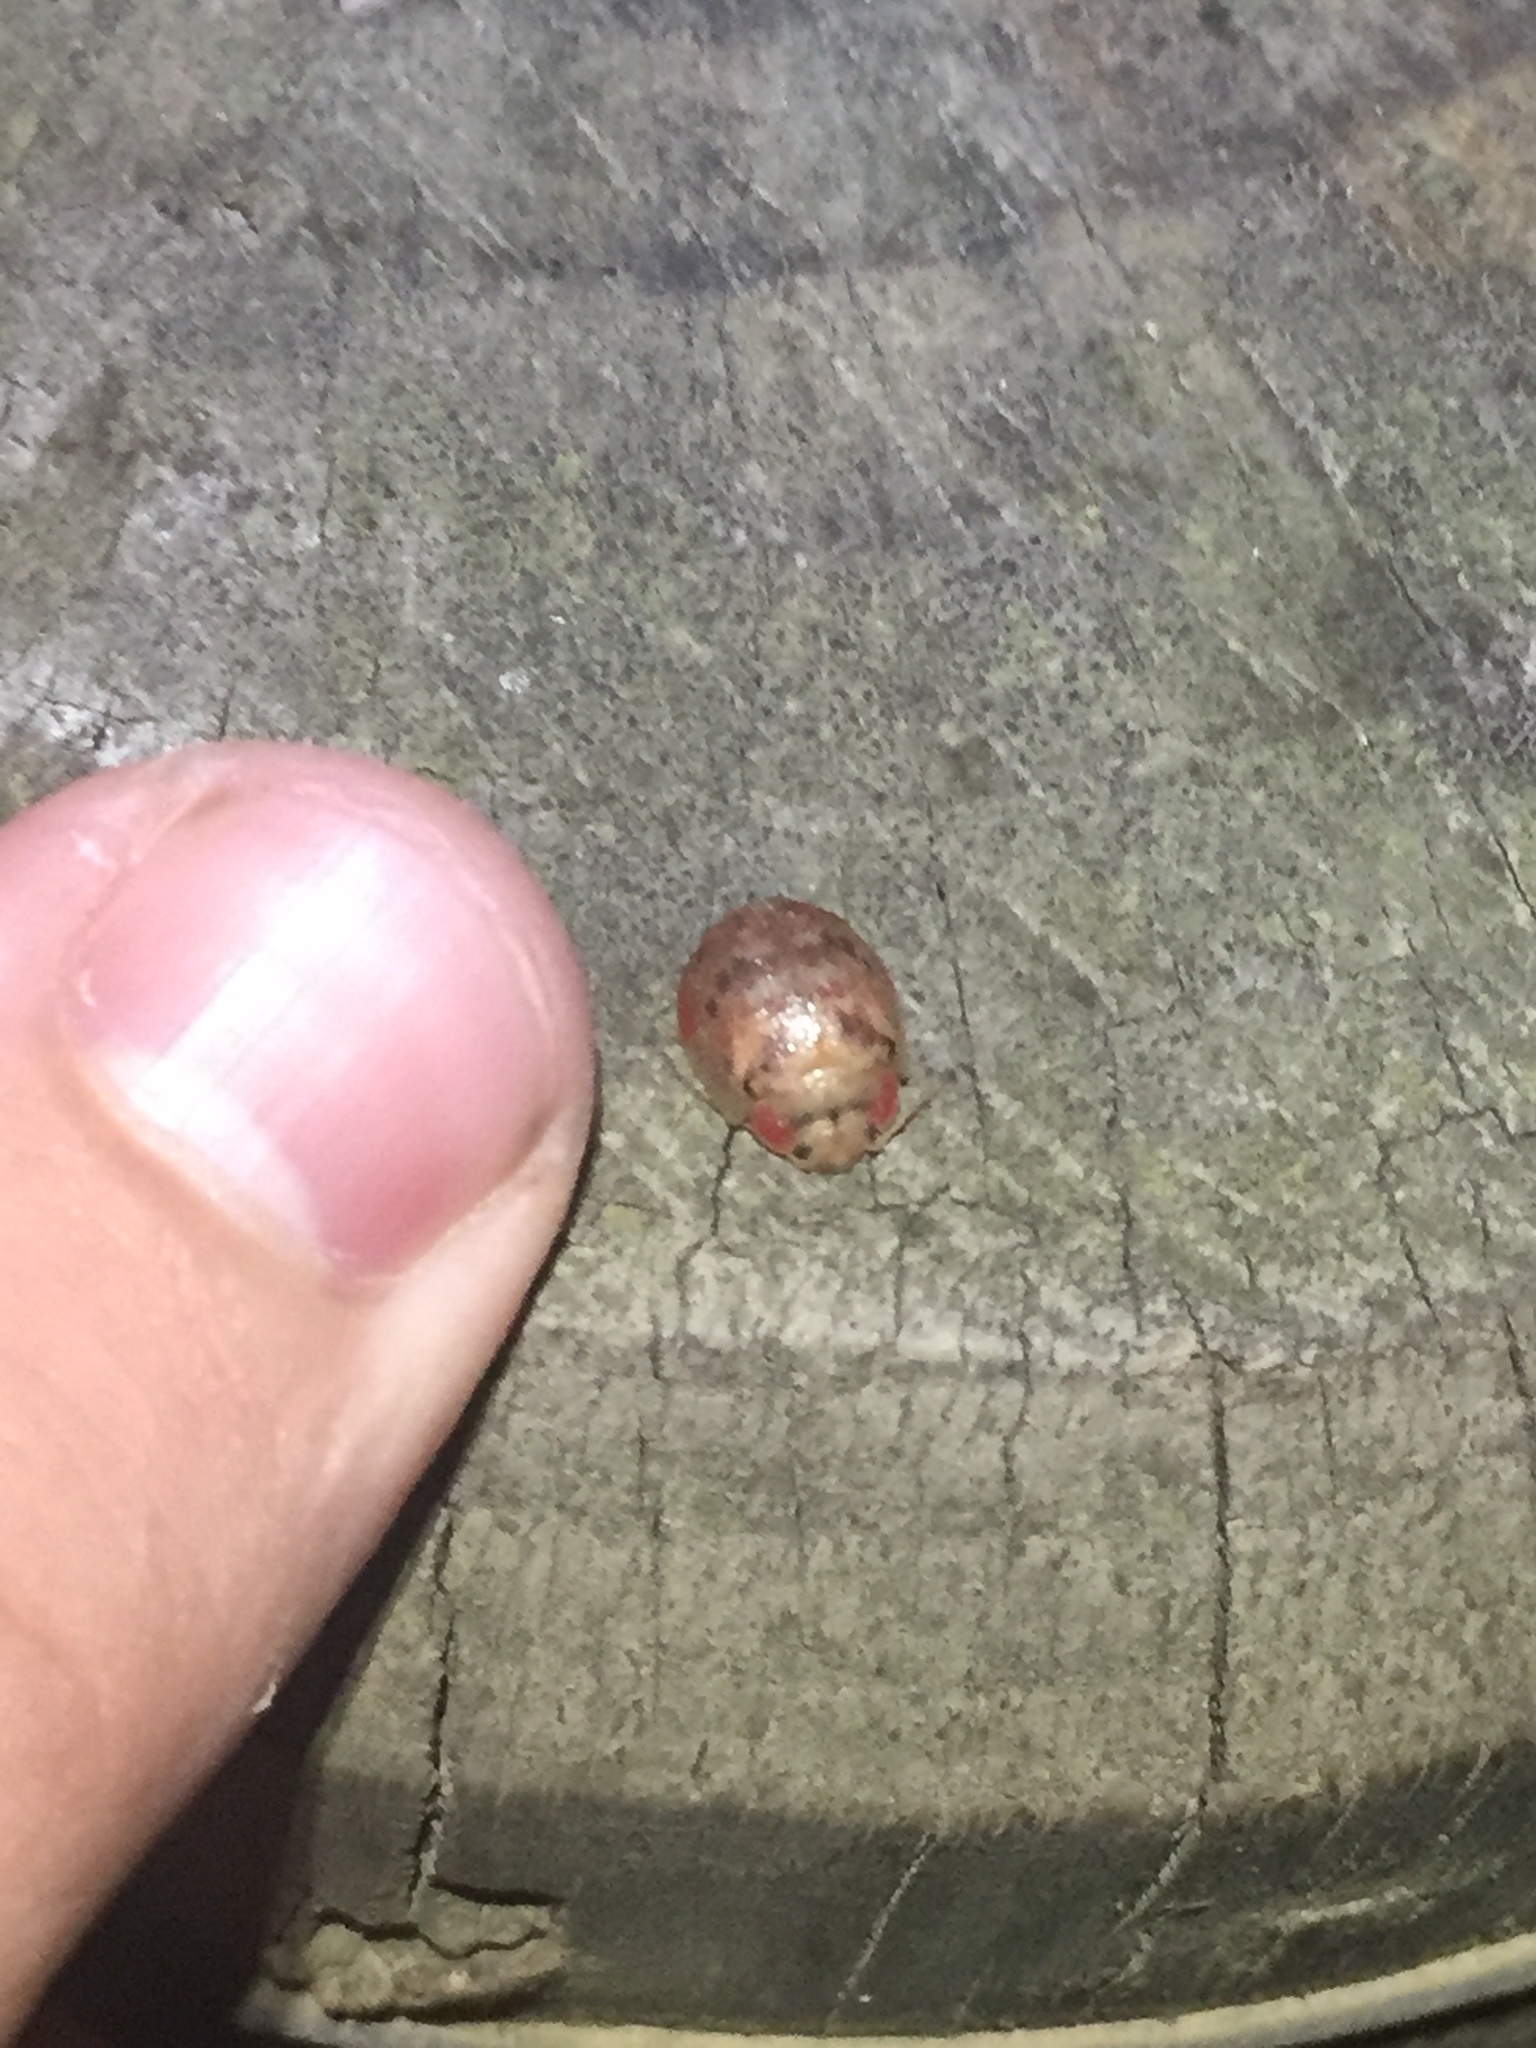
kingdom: Animalia
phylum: Arthropoda
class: Insecta
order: Coleoptera
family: Chrysomelidae
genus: Paropsis
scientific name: Paropsis charybdis
